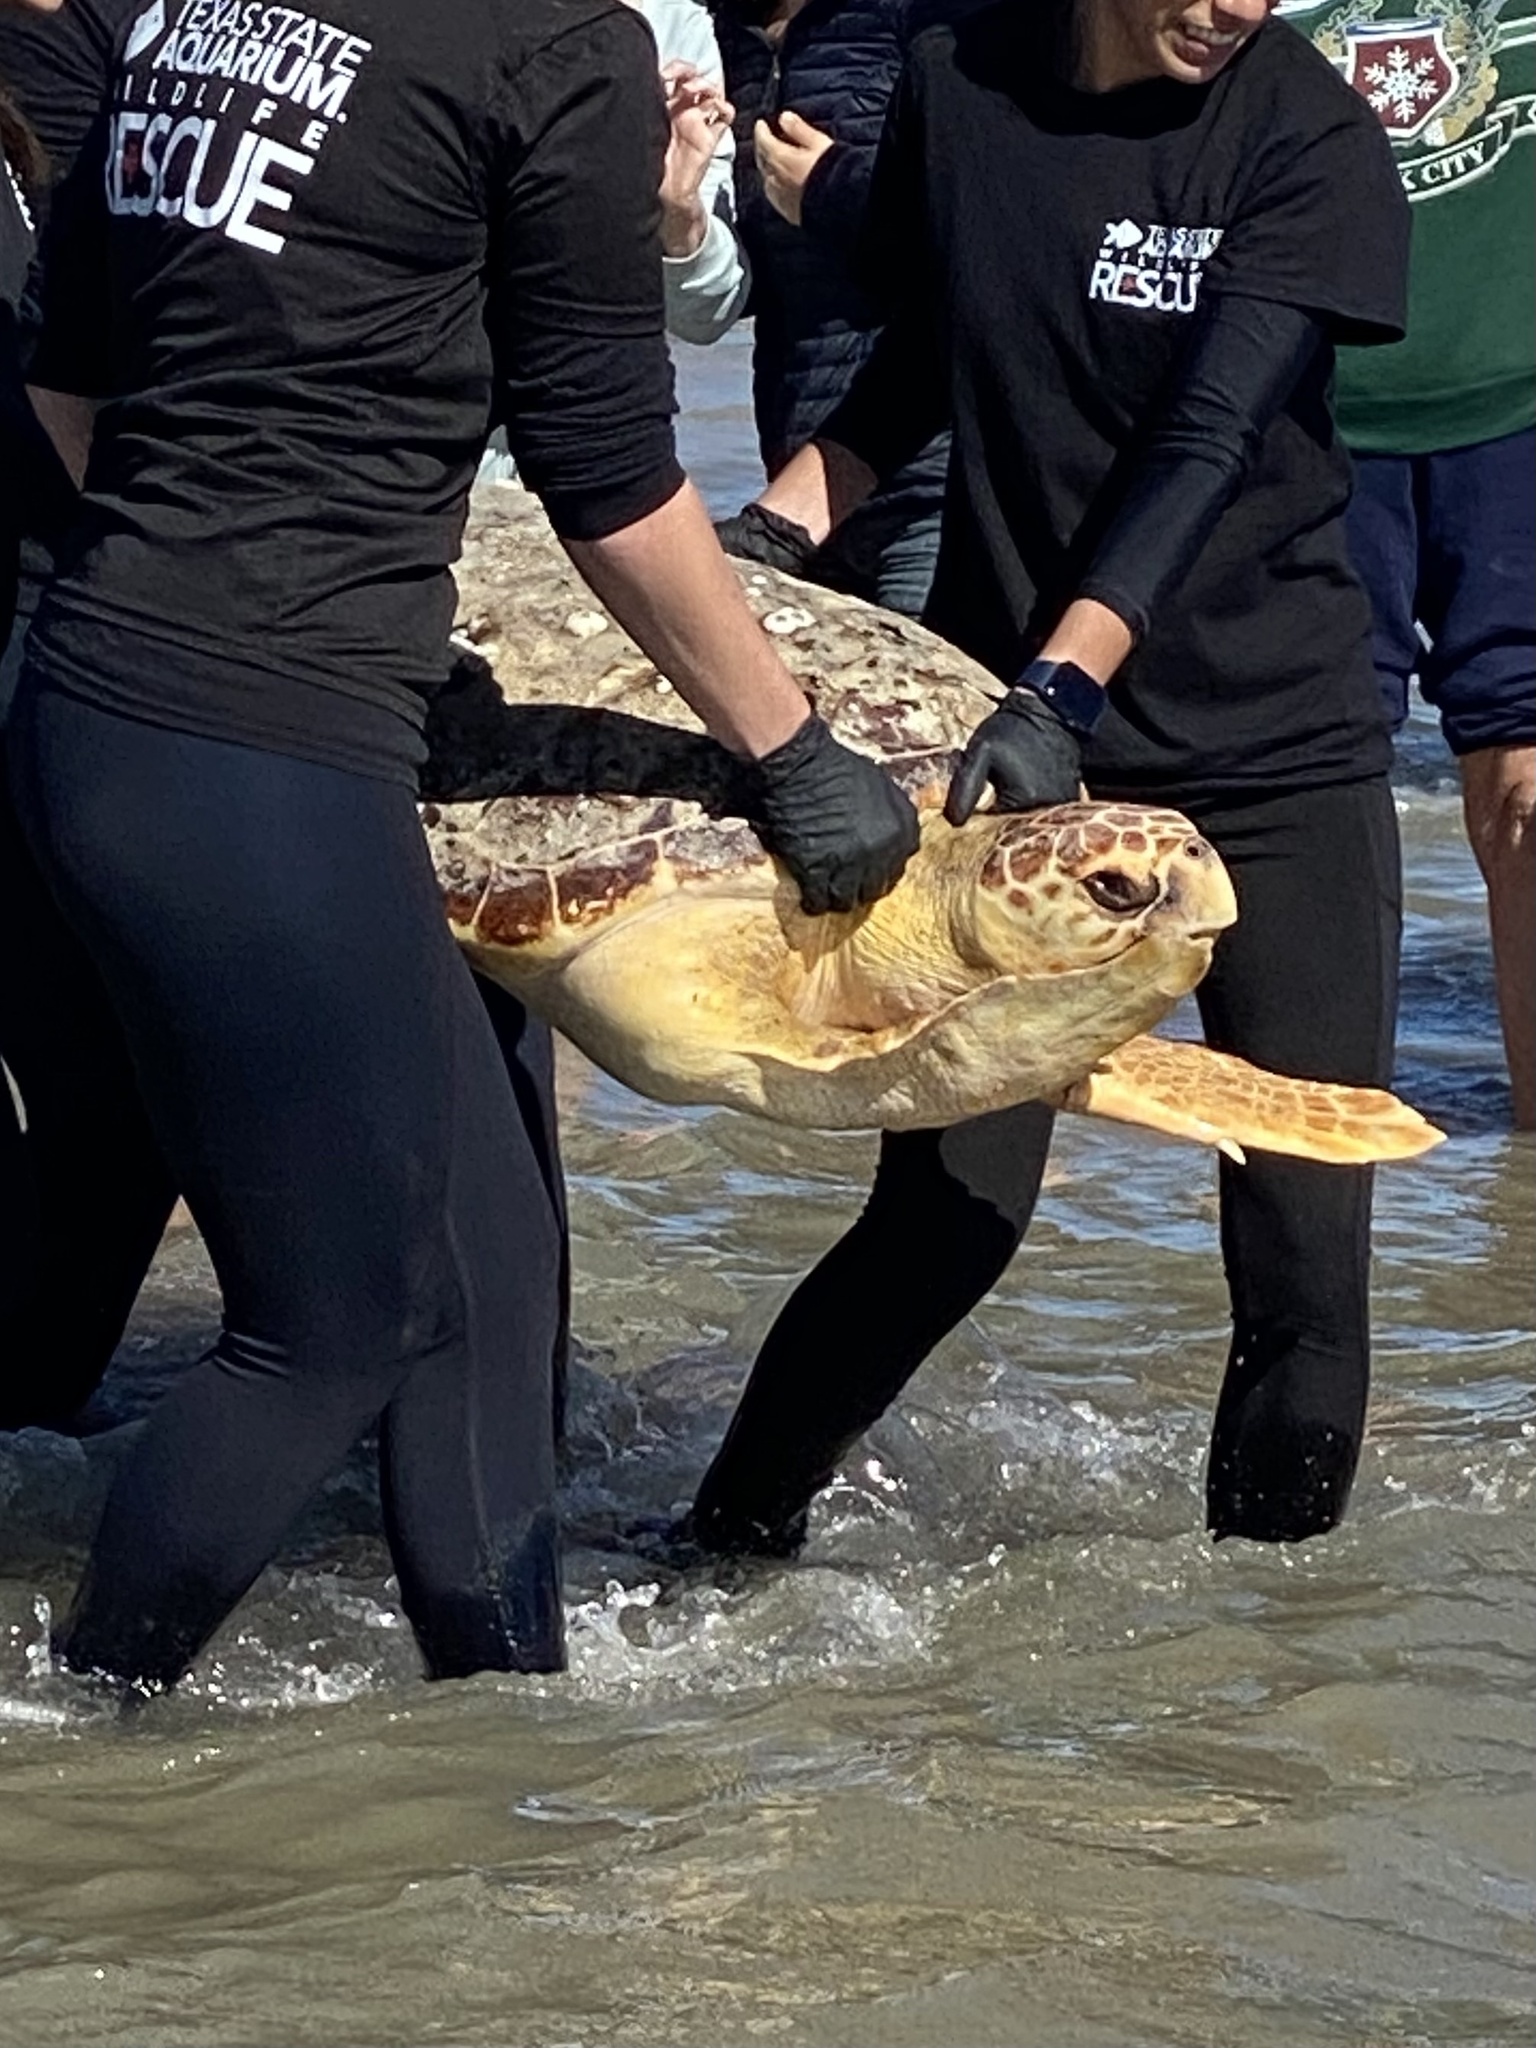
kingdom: Animalia
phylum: Chordata
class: Testudines
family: Cheloniidae
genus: Caretta
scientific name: Caretta caretta
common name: Loggerhead sea turtle
